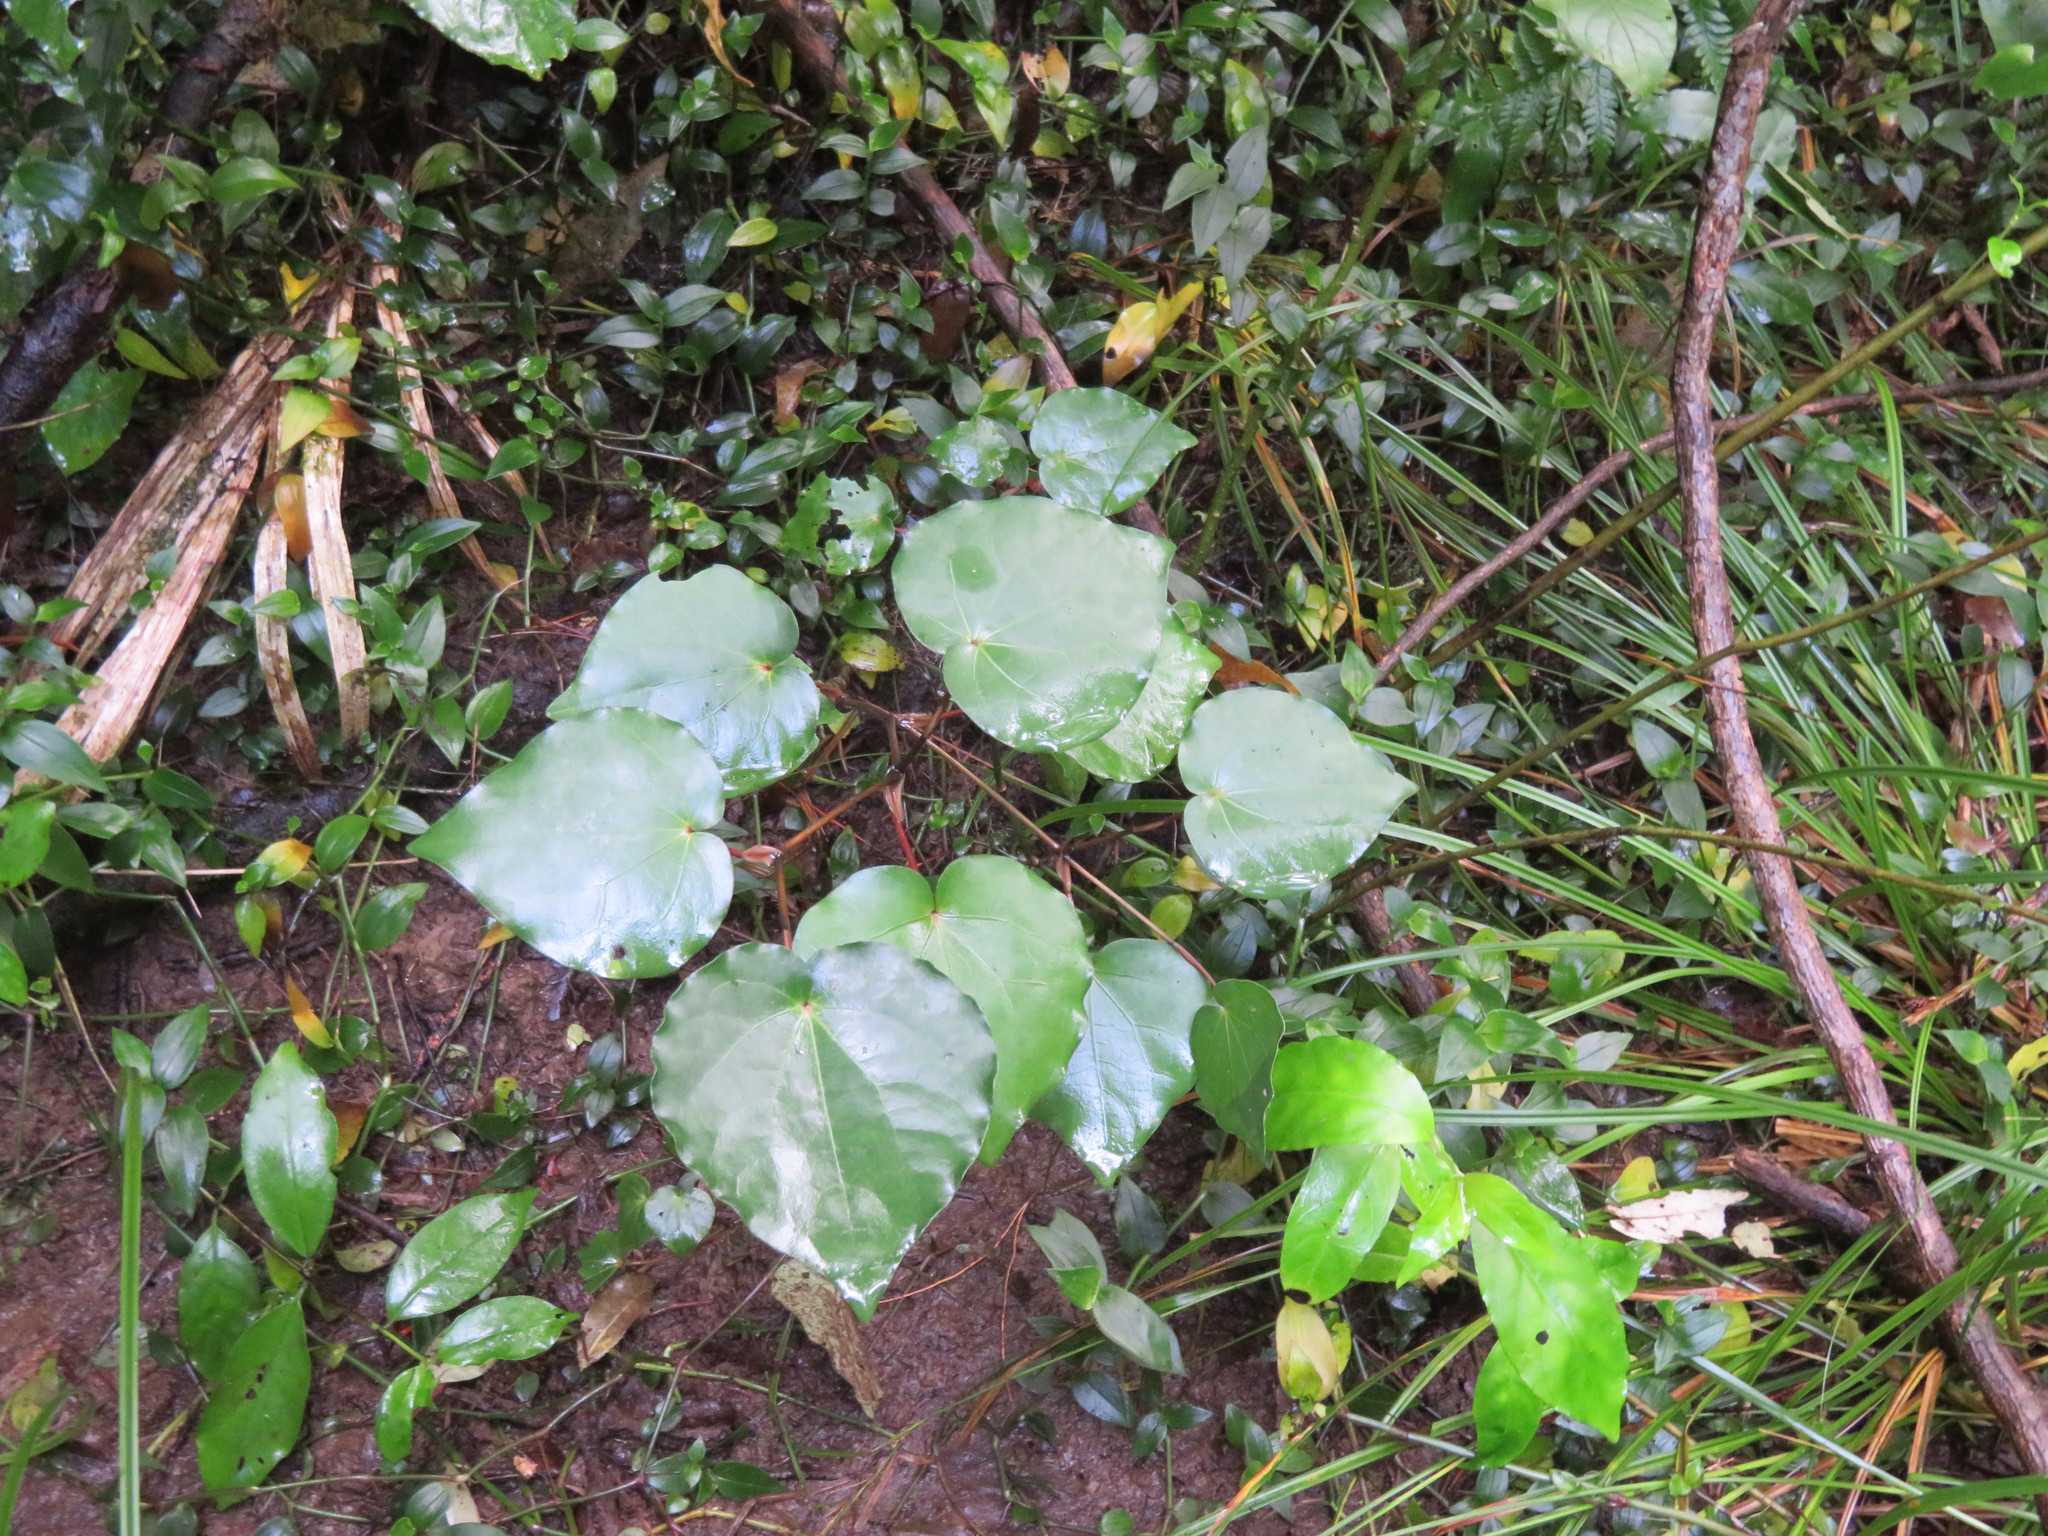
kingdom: Plantae
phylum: Tracheophyta
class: Magnoliopsida
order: Piperales
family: Piperaceae
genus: Macropiper
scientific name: Macropiper excelsum
